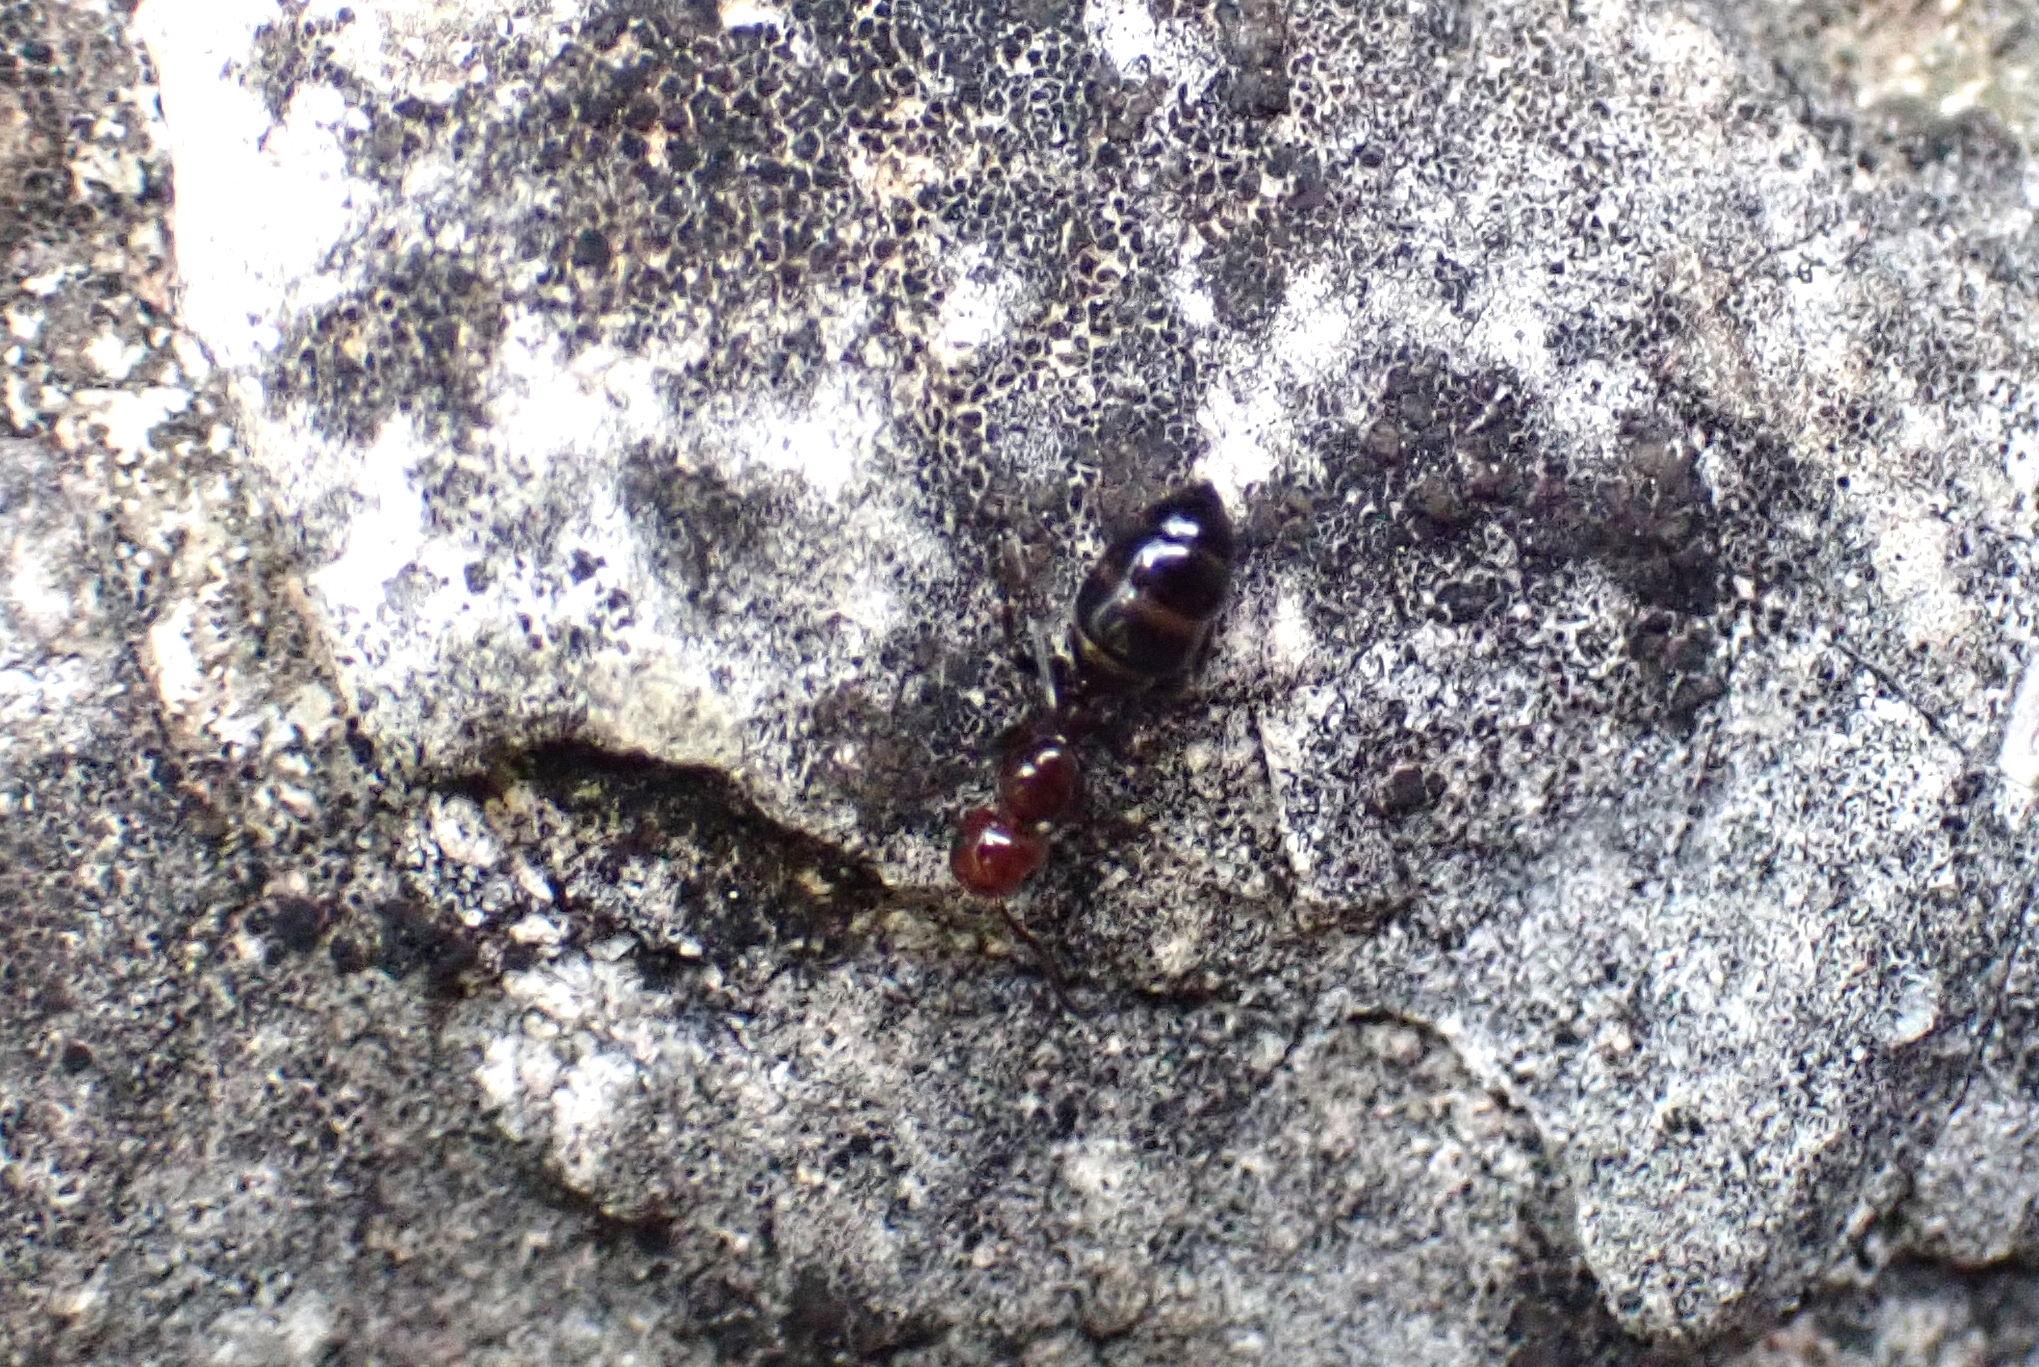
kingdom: Animalia
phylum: Arthropoda
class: Insecta
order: Hymenoptera
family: Formicidae
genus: Camponotus
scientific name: Camponotus lateralis
